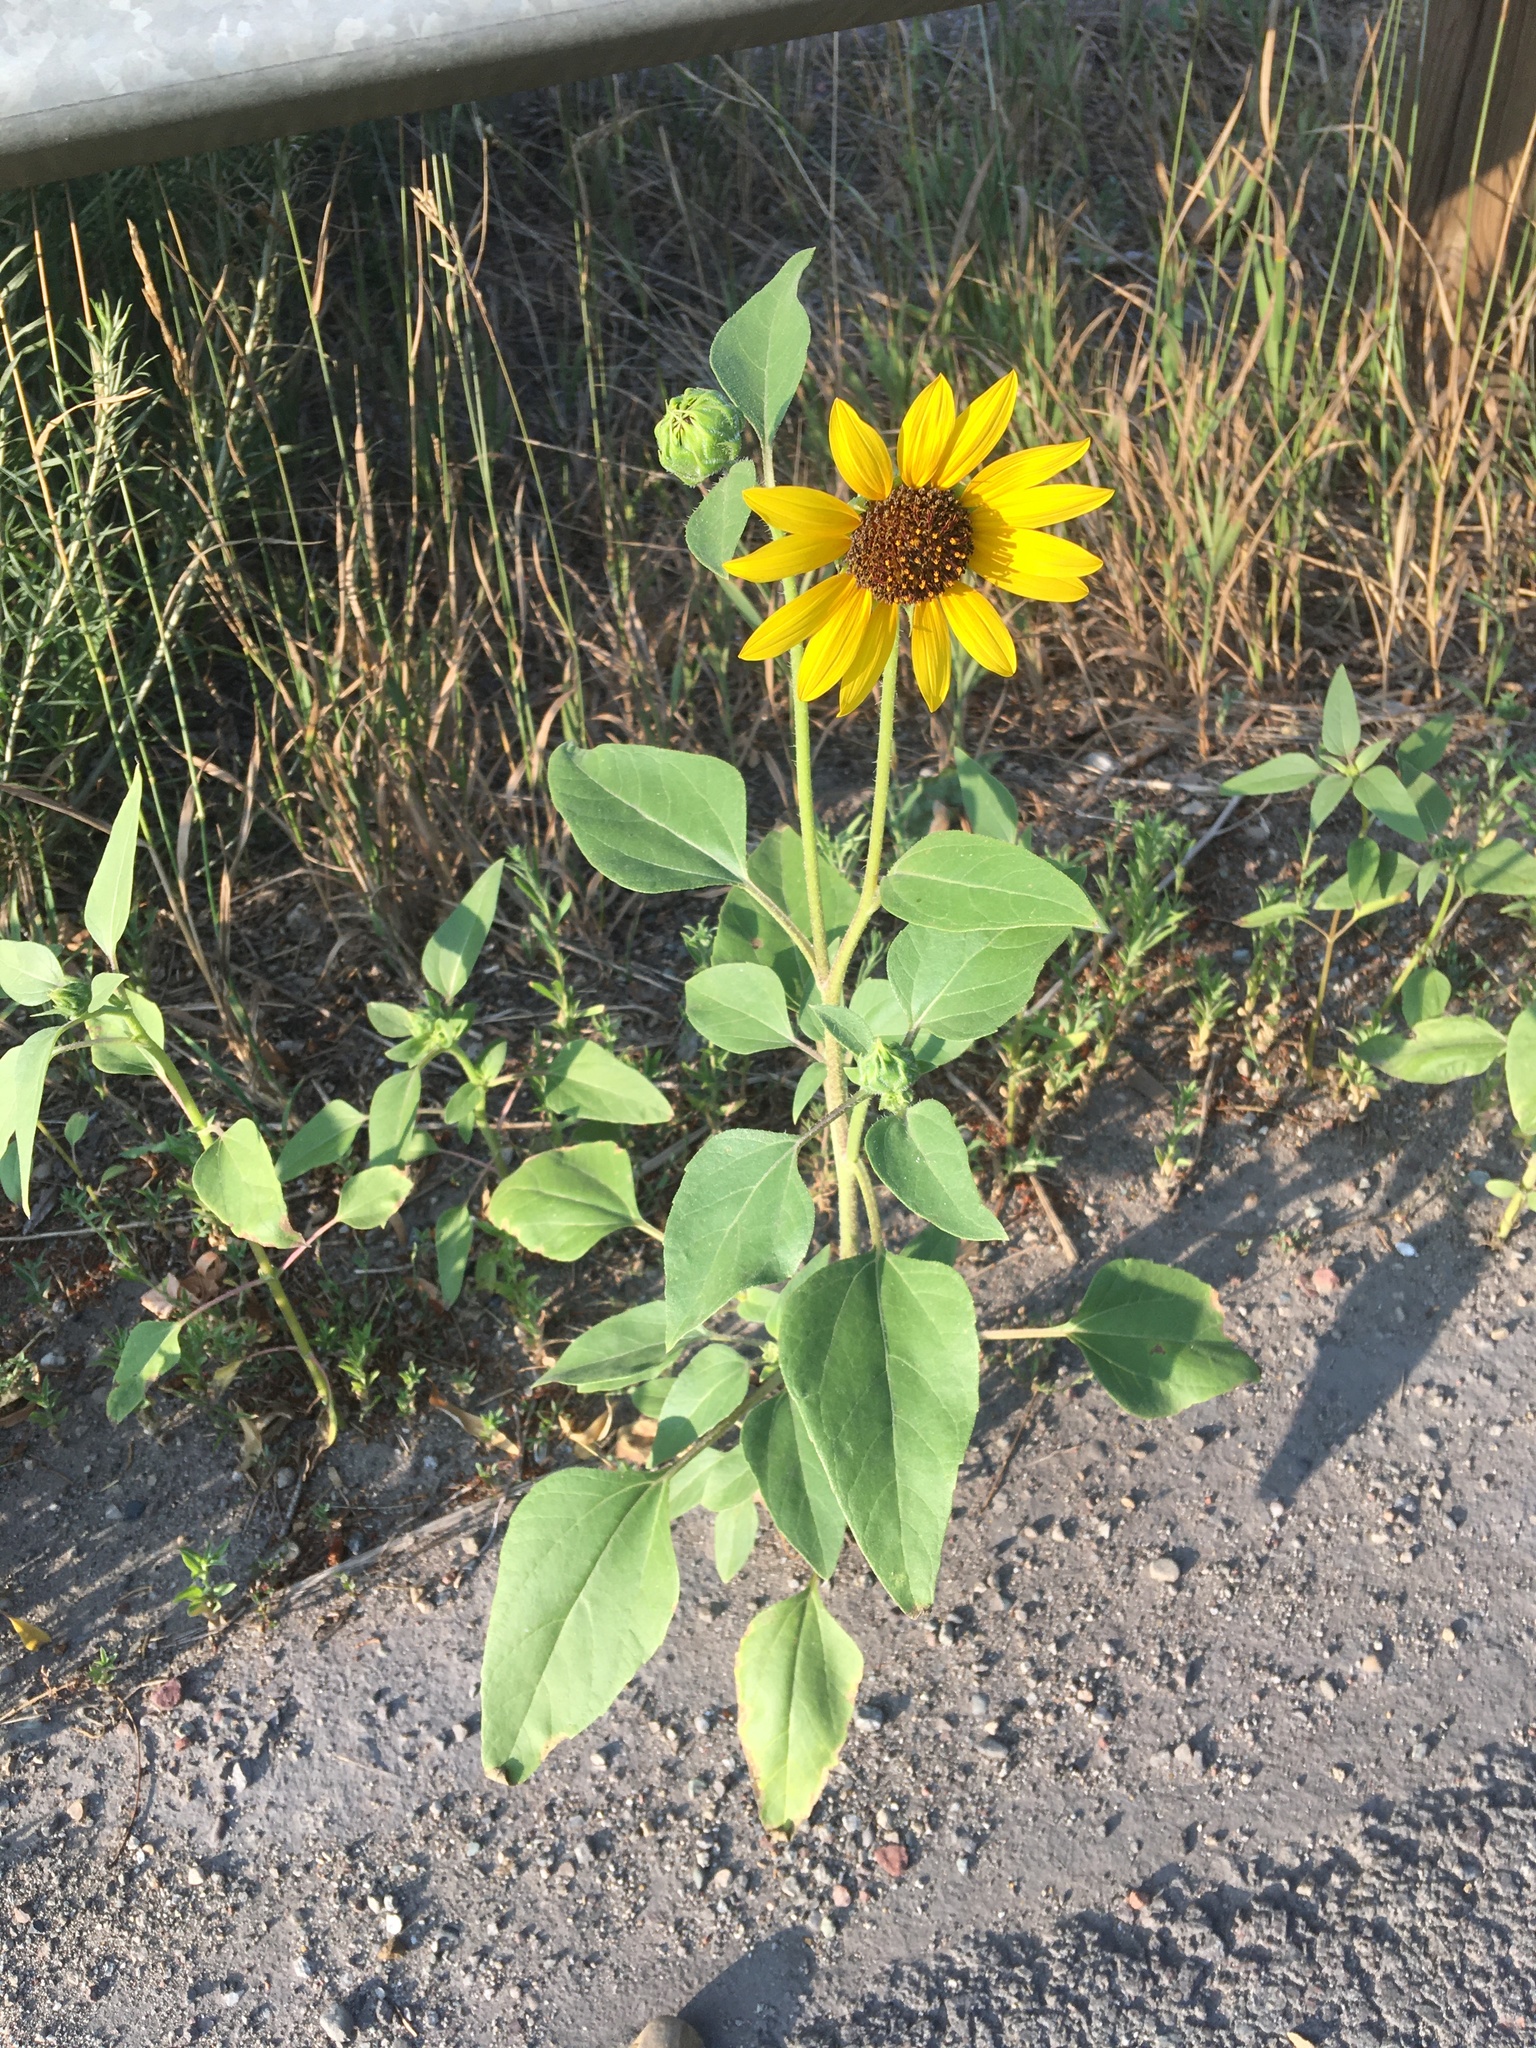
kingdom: Plantae
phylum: Tracheophyta
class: Magnoliopsida
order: Asterales
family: Asteraceae
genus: Helianthus
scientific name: Helianthus annuus
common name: Sunflower
